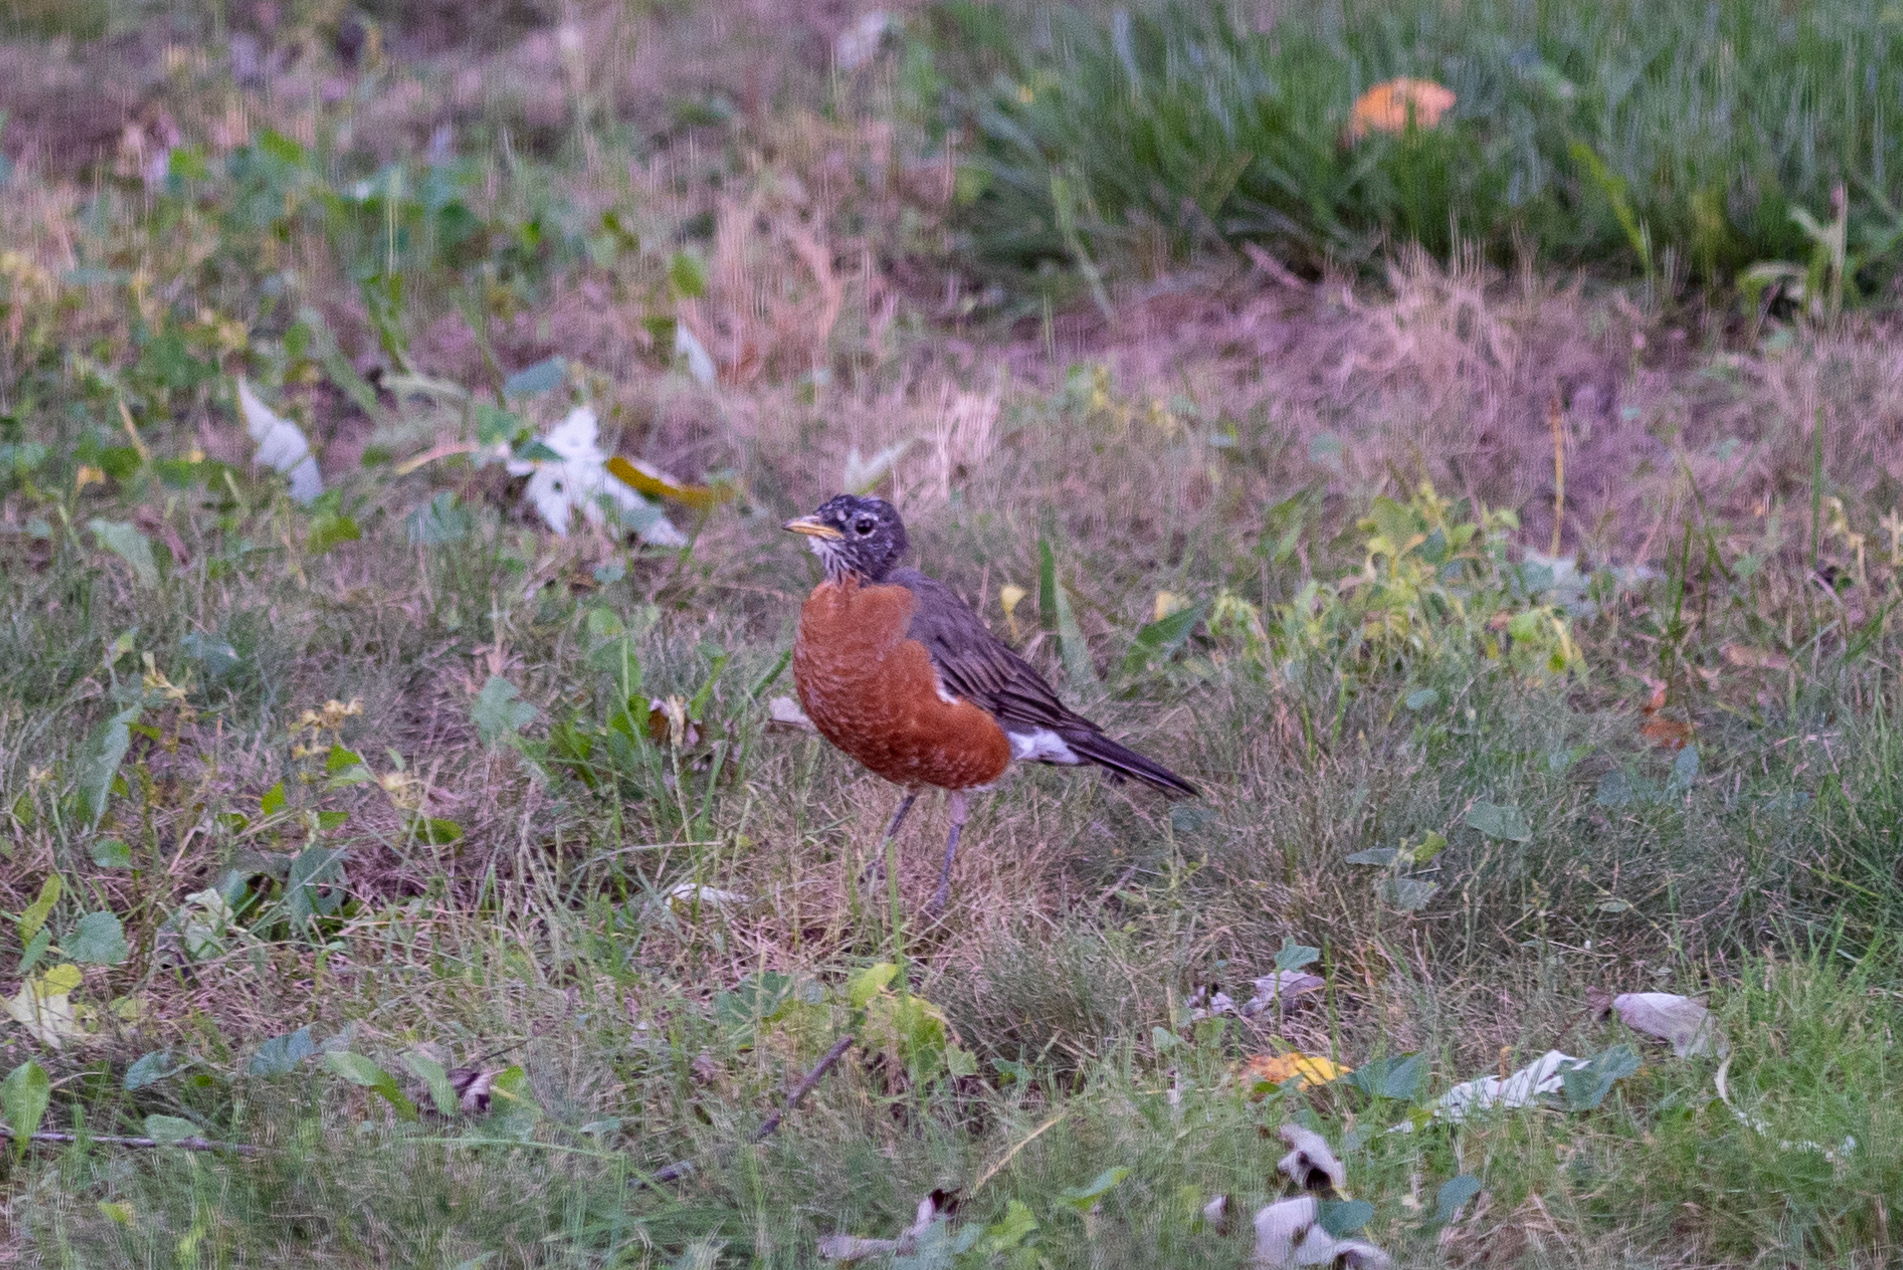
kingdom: Animalia
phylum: Chordata
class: Aves
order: Passeriformes
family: Turdidae
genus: Turdus
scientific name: Turdus migratorius
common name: American robin
